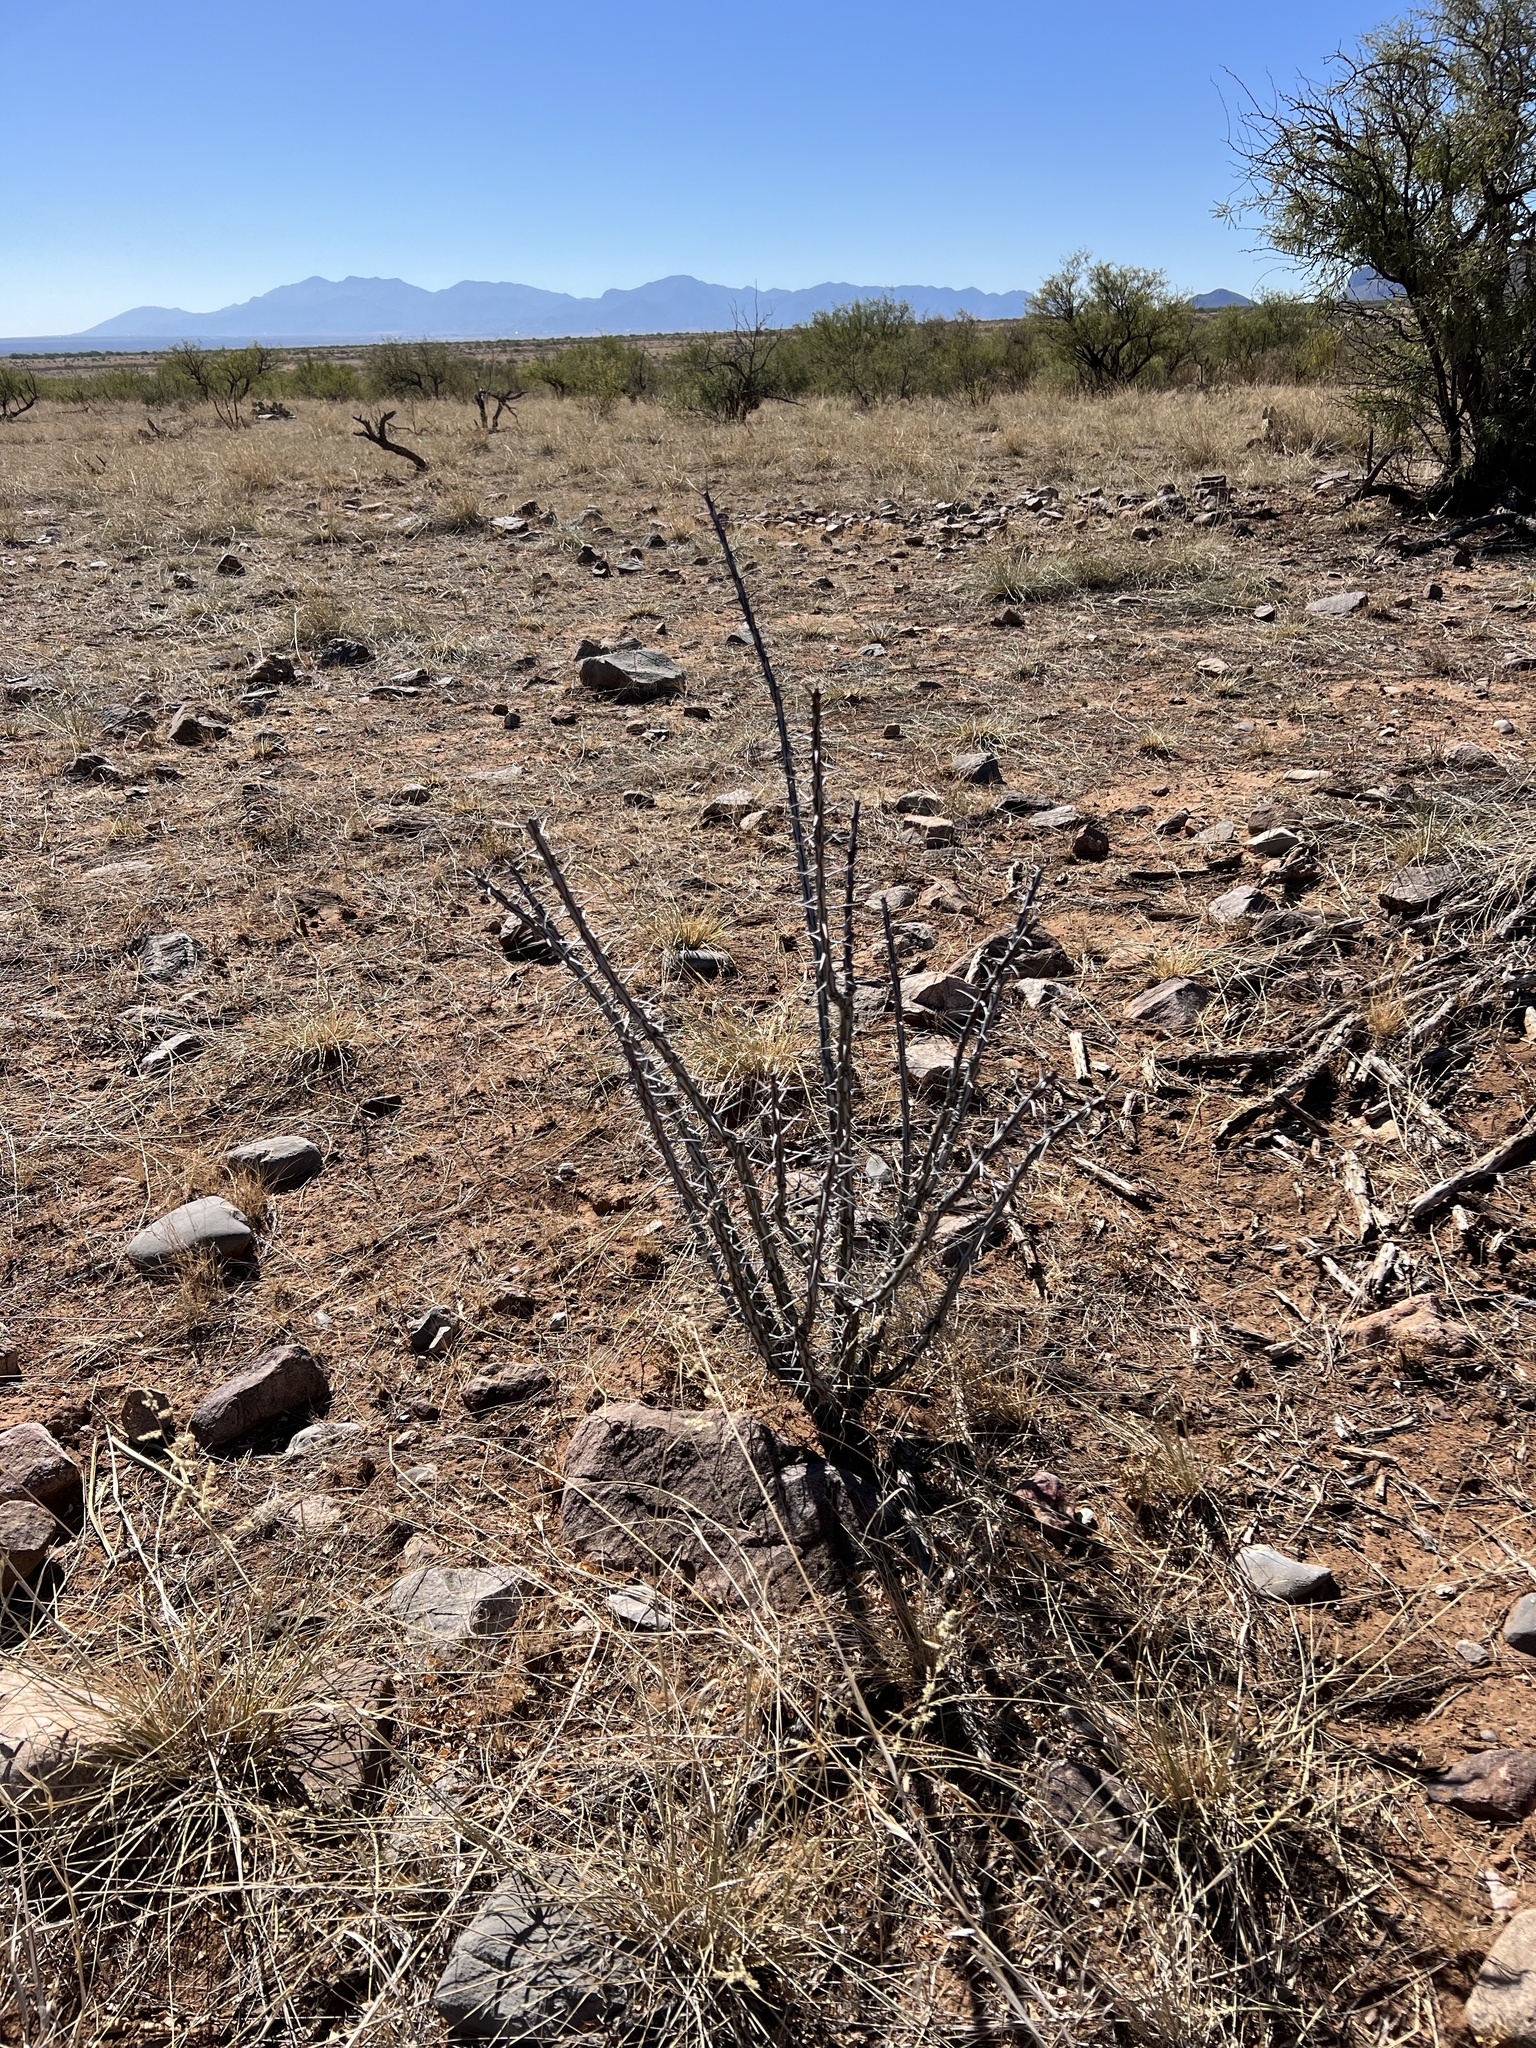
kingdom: Plantae
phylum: Tracheophyta
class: Magnoliopsida
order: Ericales
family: Fouquieriaceae
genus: Fouquieria
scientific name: Fouquieria splendens
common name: Vine-cactus
